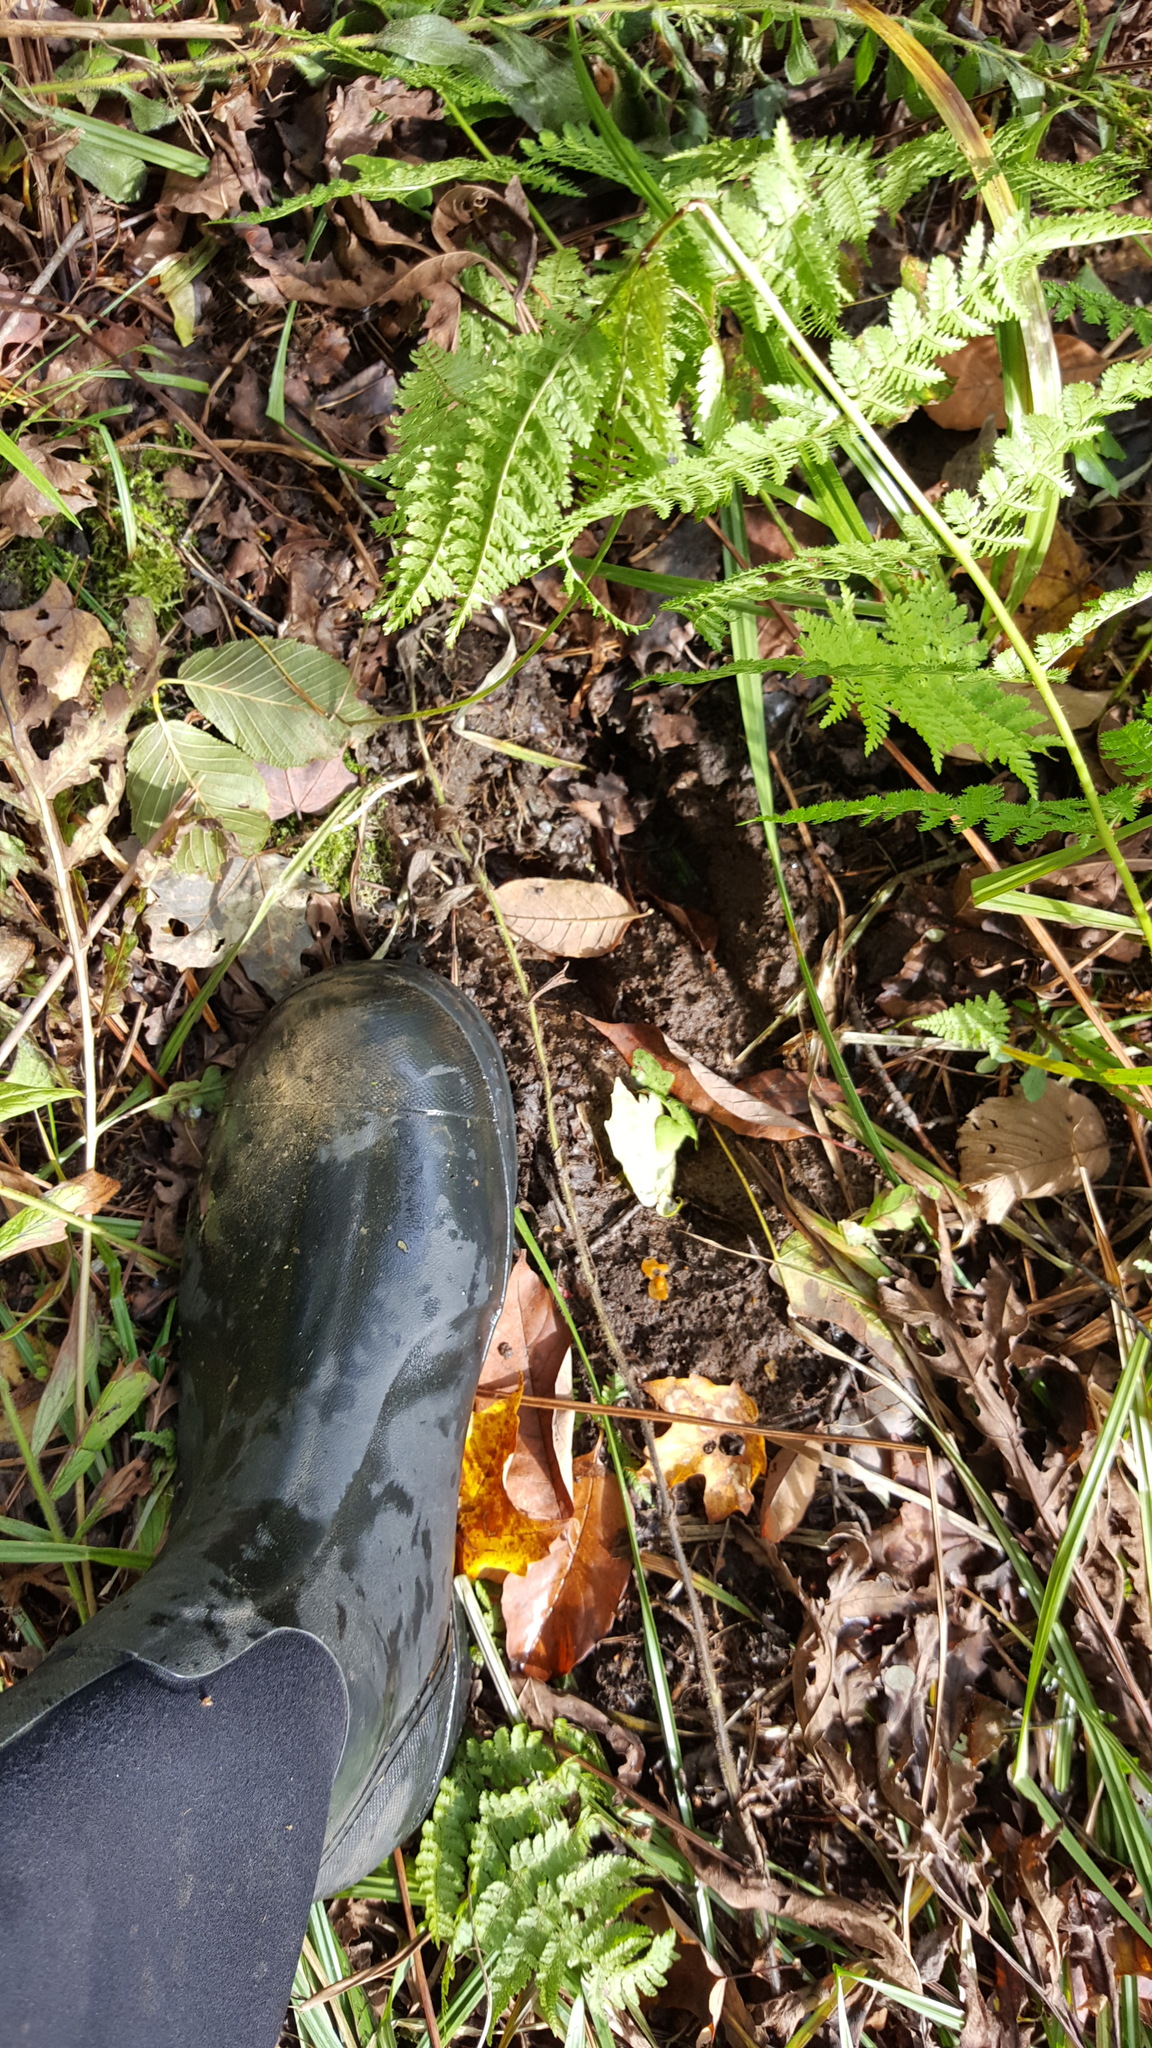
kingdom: Animalia
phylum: Chordata
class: Mammalia
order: Artiodactyla
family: Cervidae
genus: Alces
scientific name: Alces alces
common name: Moose
